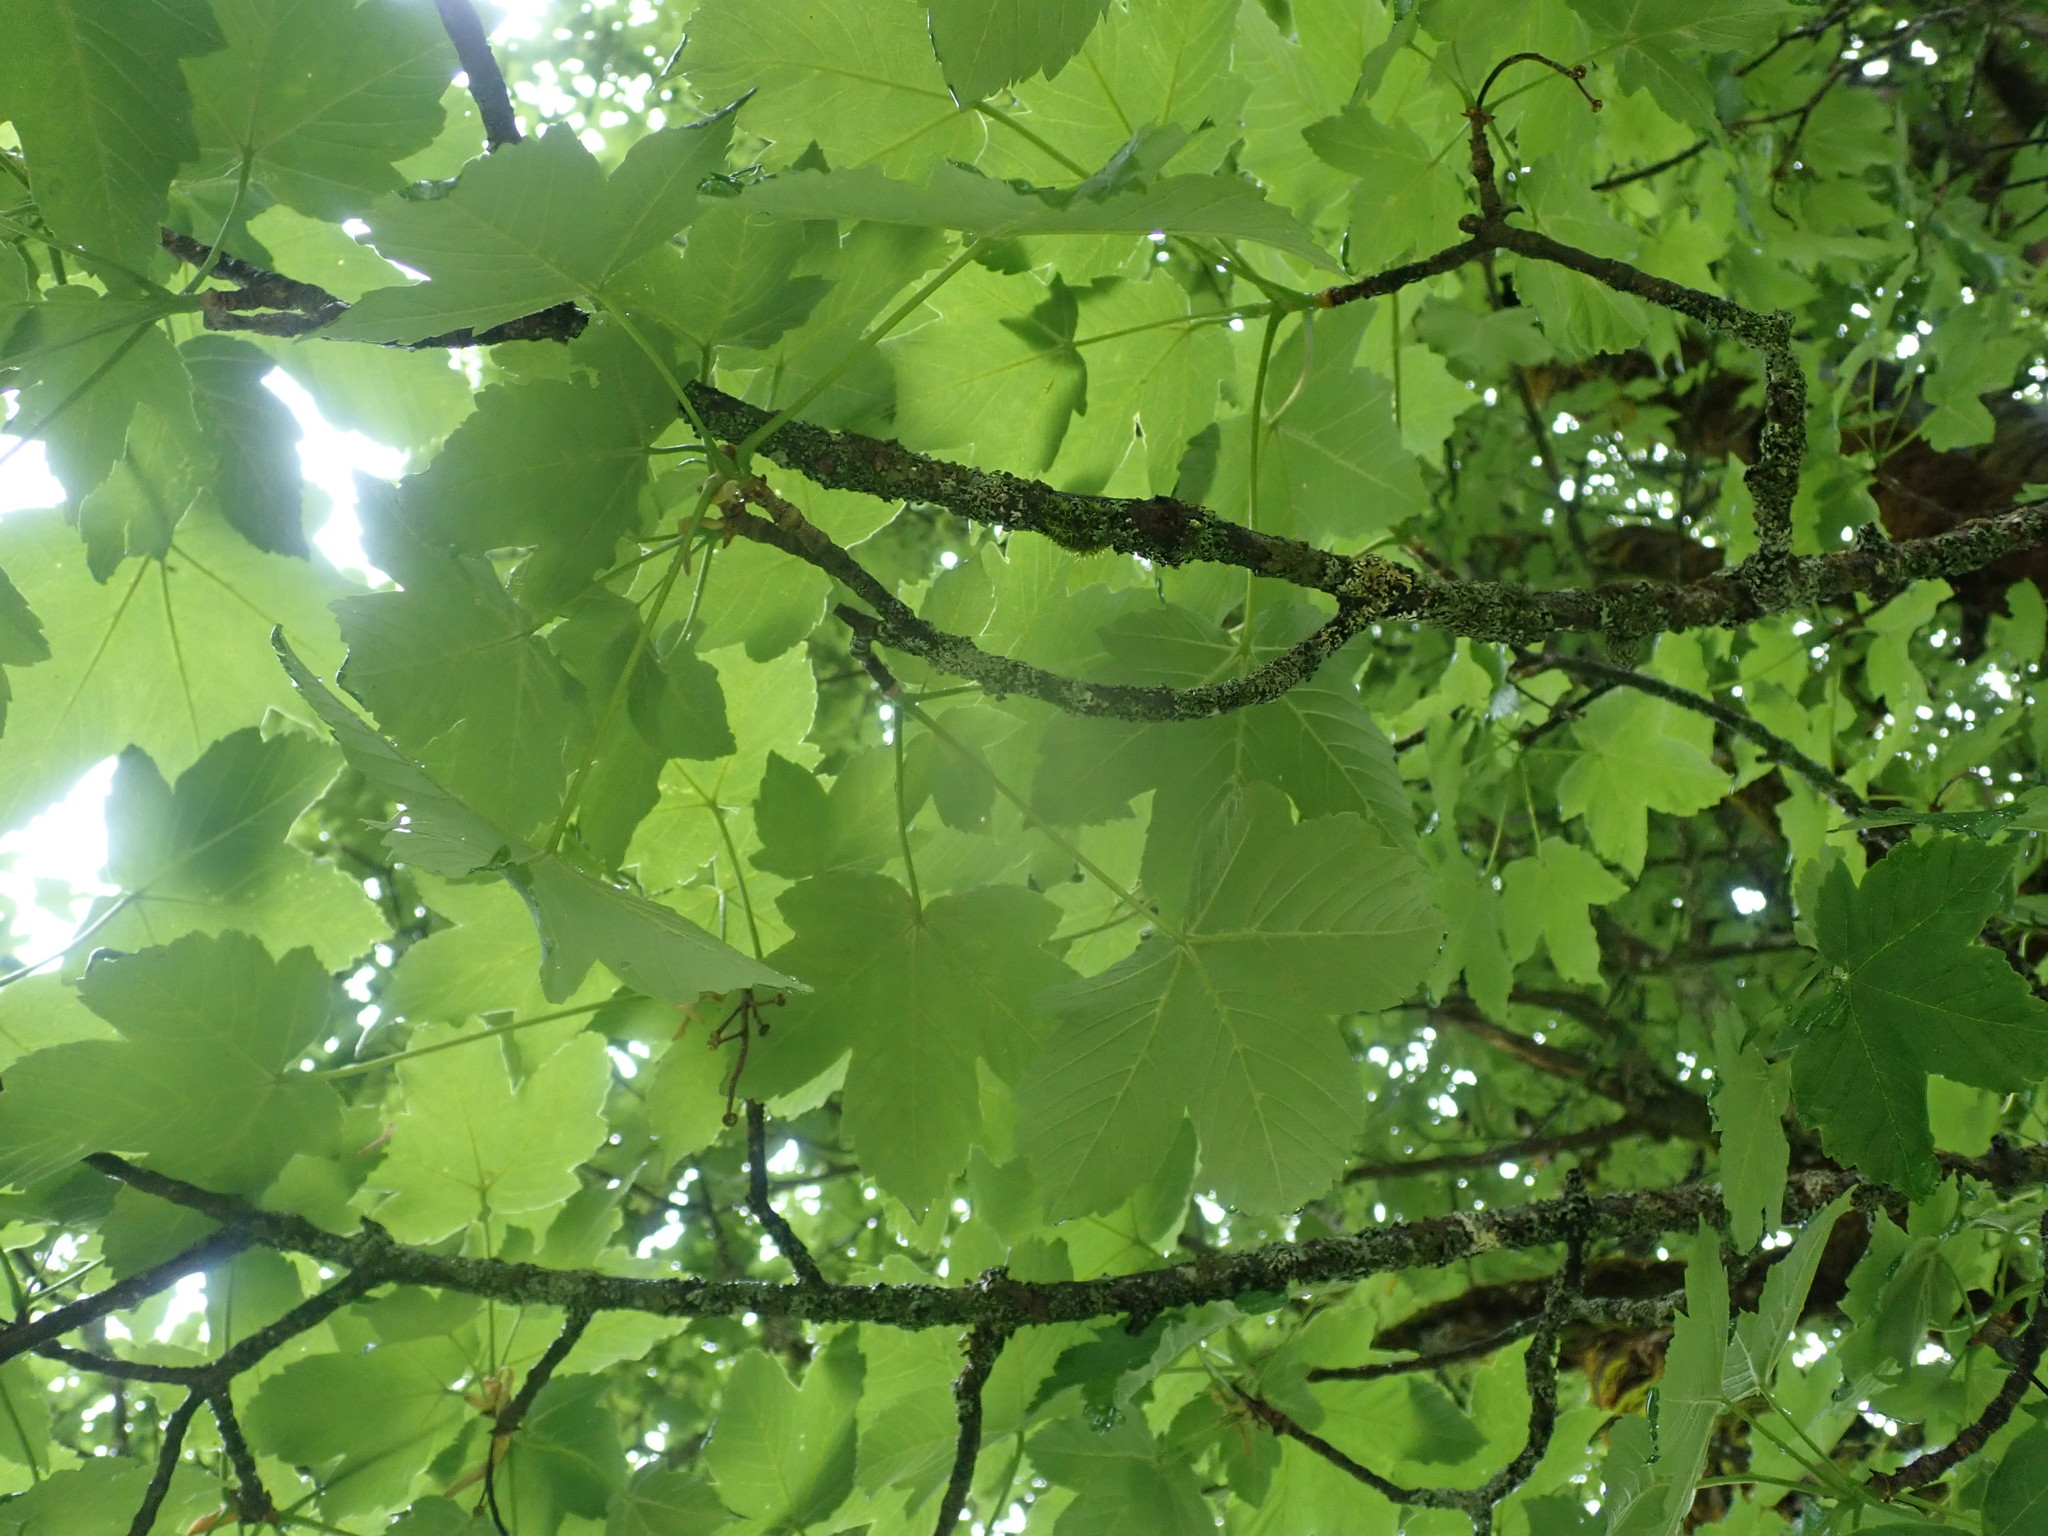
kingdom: Plantae
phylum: Tracheophyta
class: Magnoliopsida
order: Sapindales
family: Sapindaceae
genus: Acer
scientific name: Acer pseudoplatanus
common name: Sycamore
